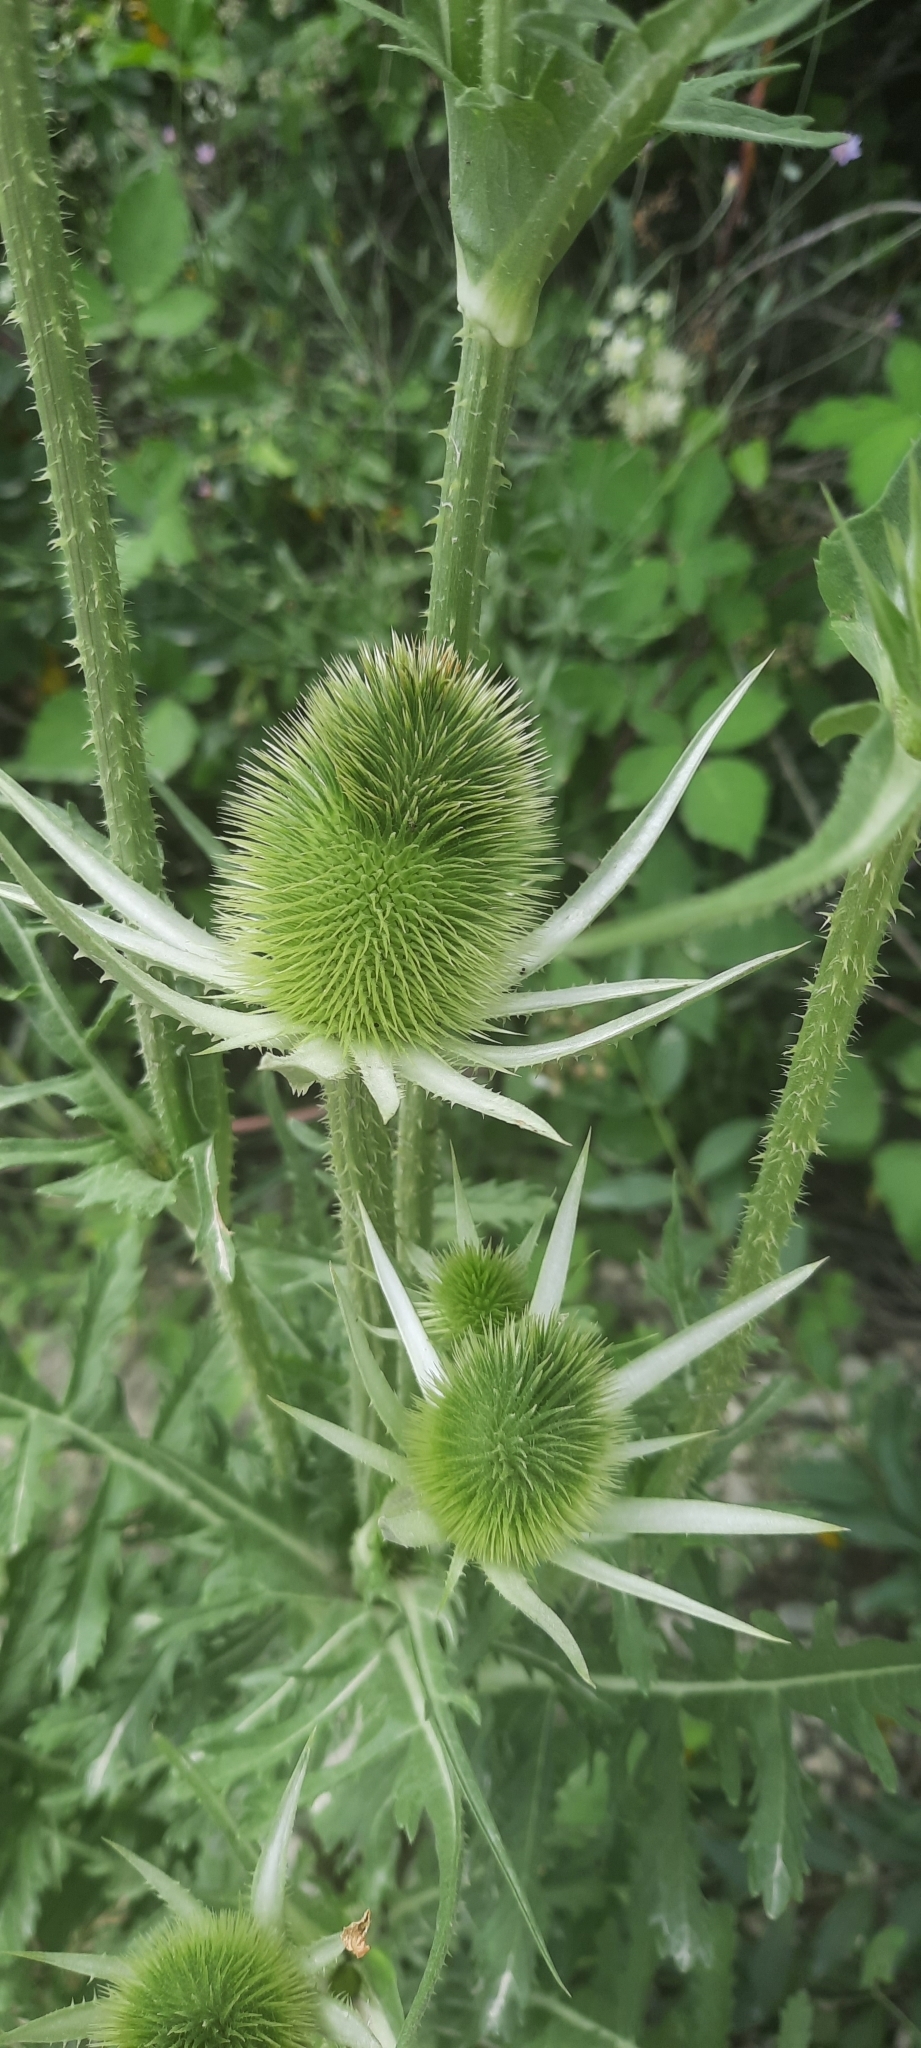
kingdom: Plantae
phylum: Tracheophyta
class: Magnoliopsida
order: Dipsacales
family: Caprifoliaceae
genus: Dipsacus
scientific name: Dipsacus laciniatus
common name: Cut-leaved teasel
